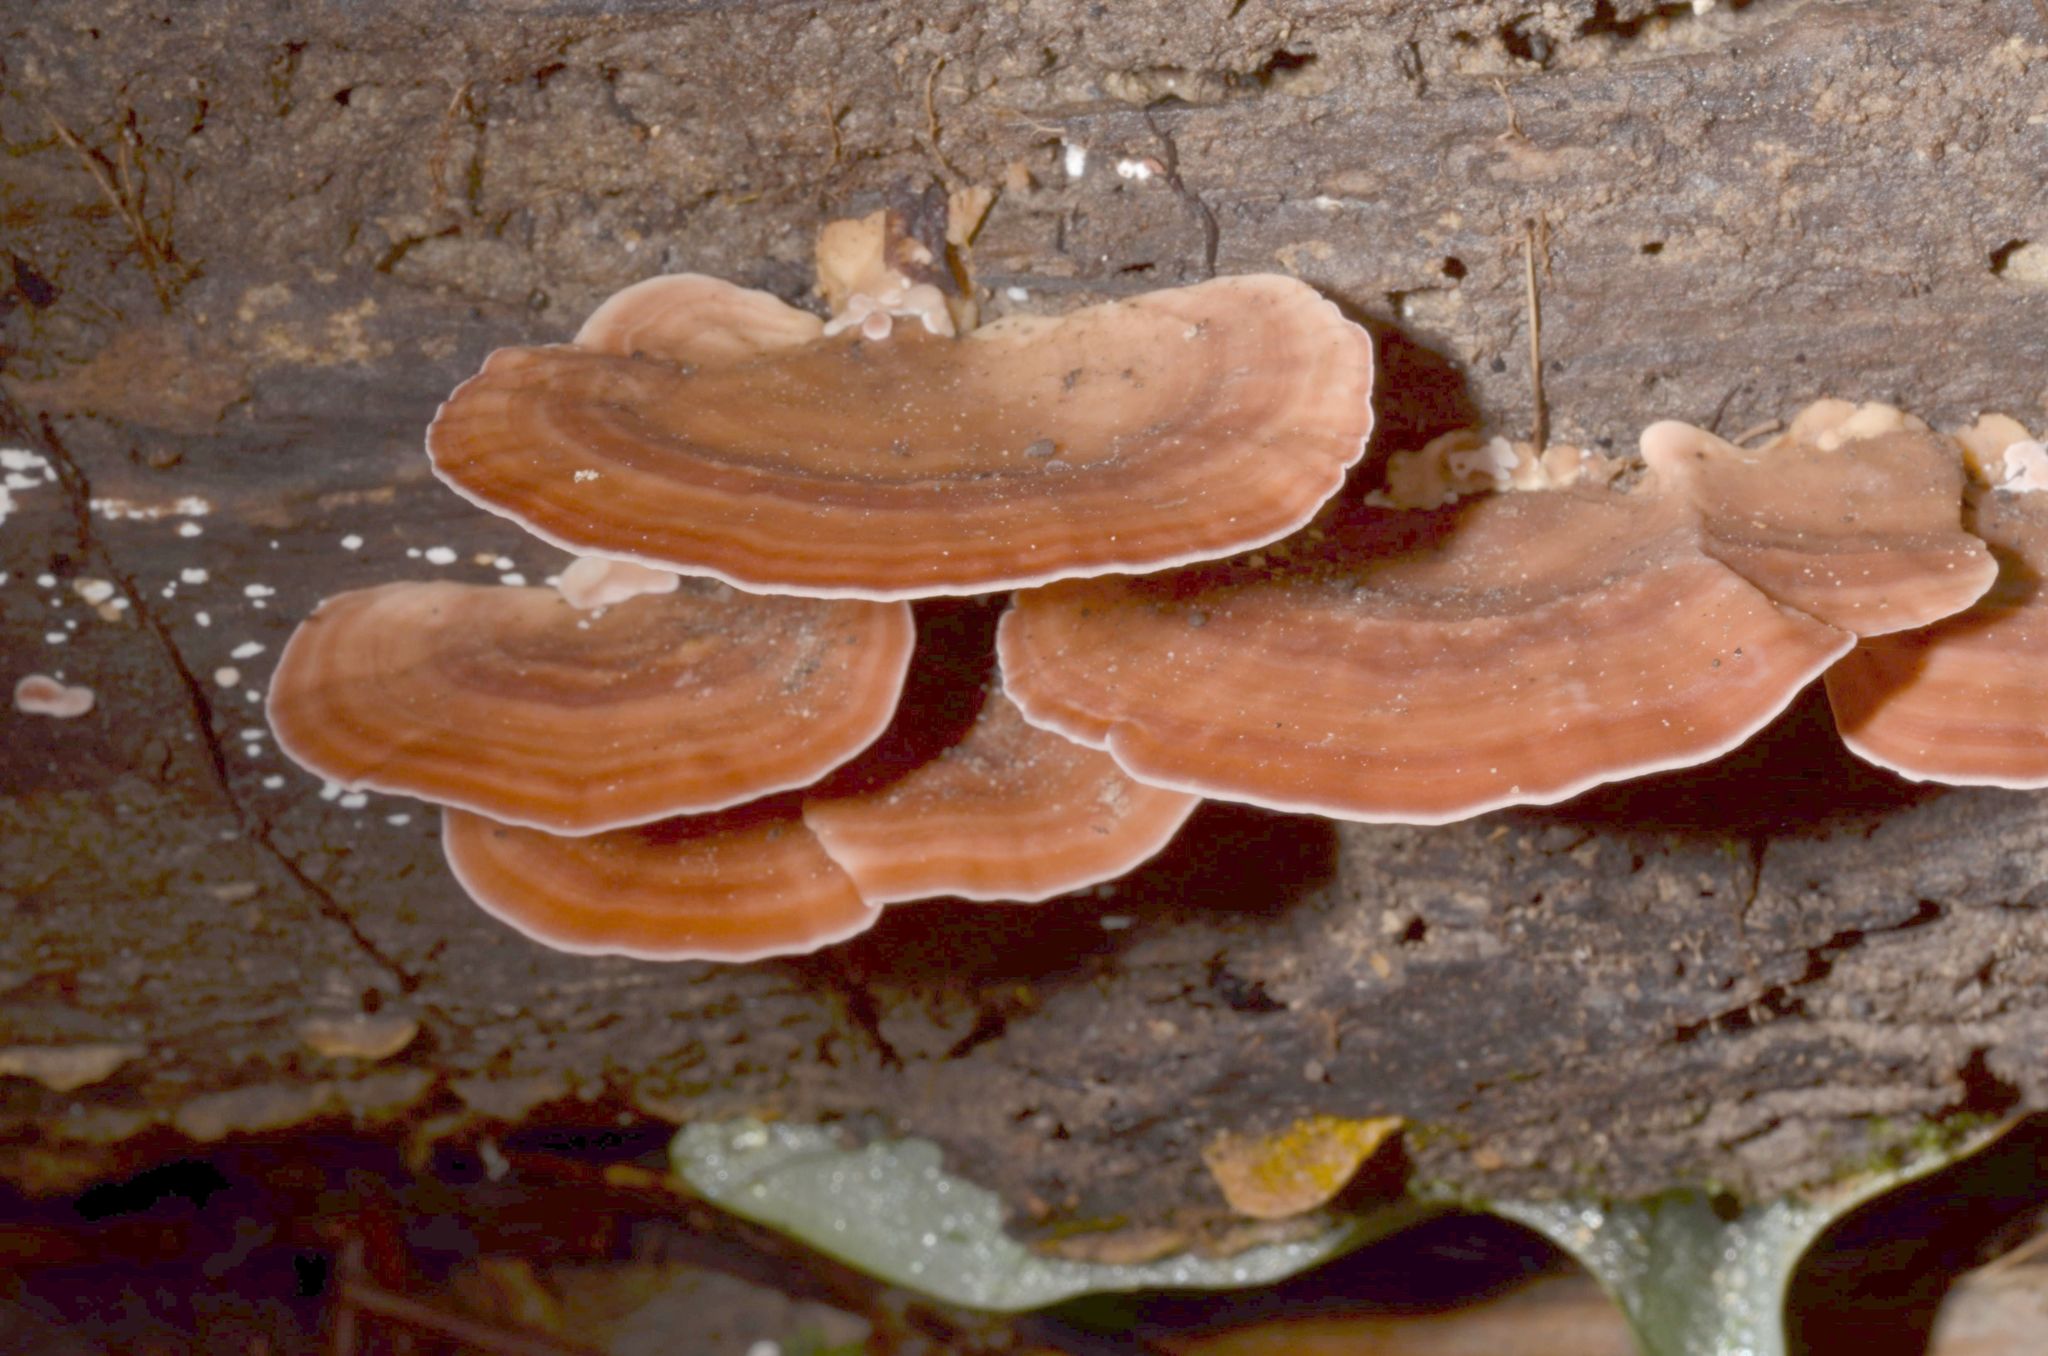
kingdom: Fungi
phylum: Basidiomycota
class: Agaricomycetes
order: Polyporales
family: Steccherinaceae
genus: Flaviporus
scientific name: Flaviporus liebmannii
